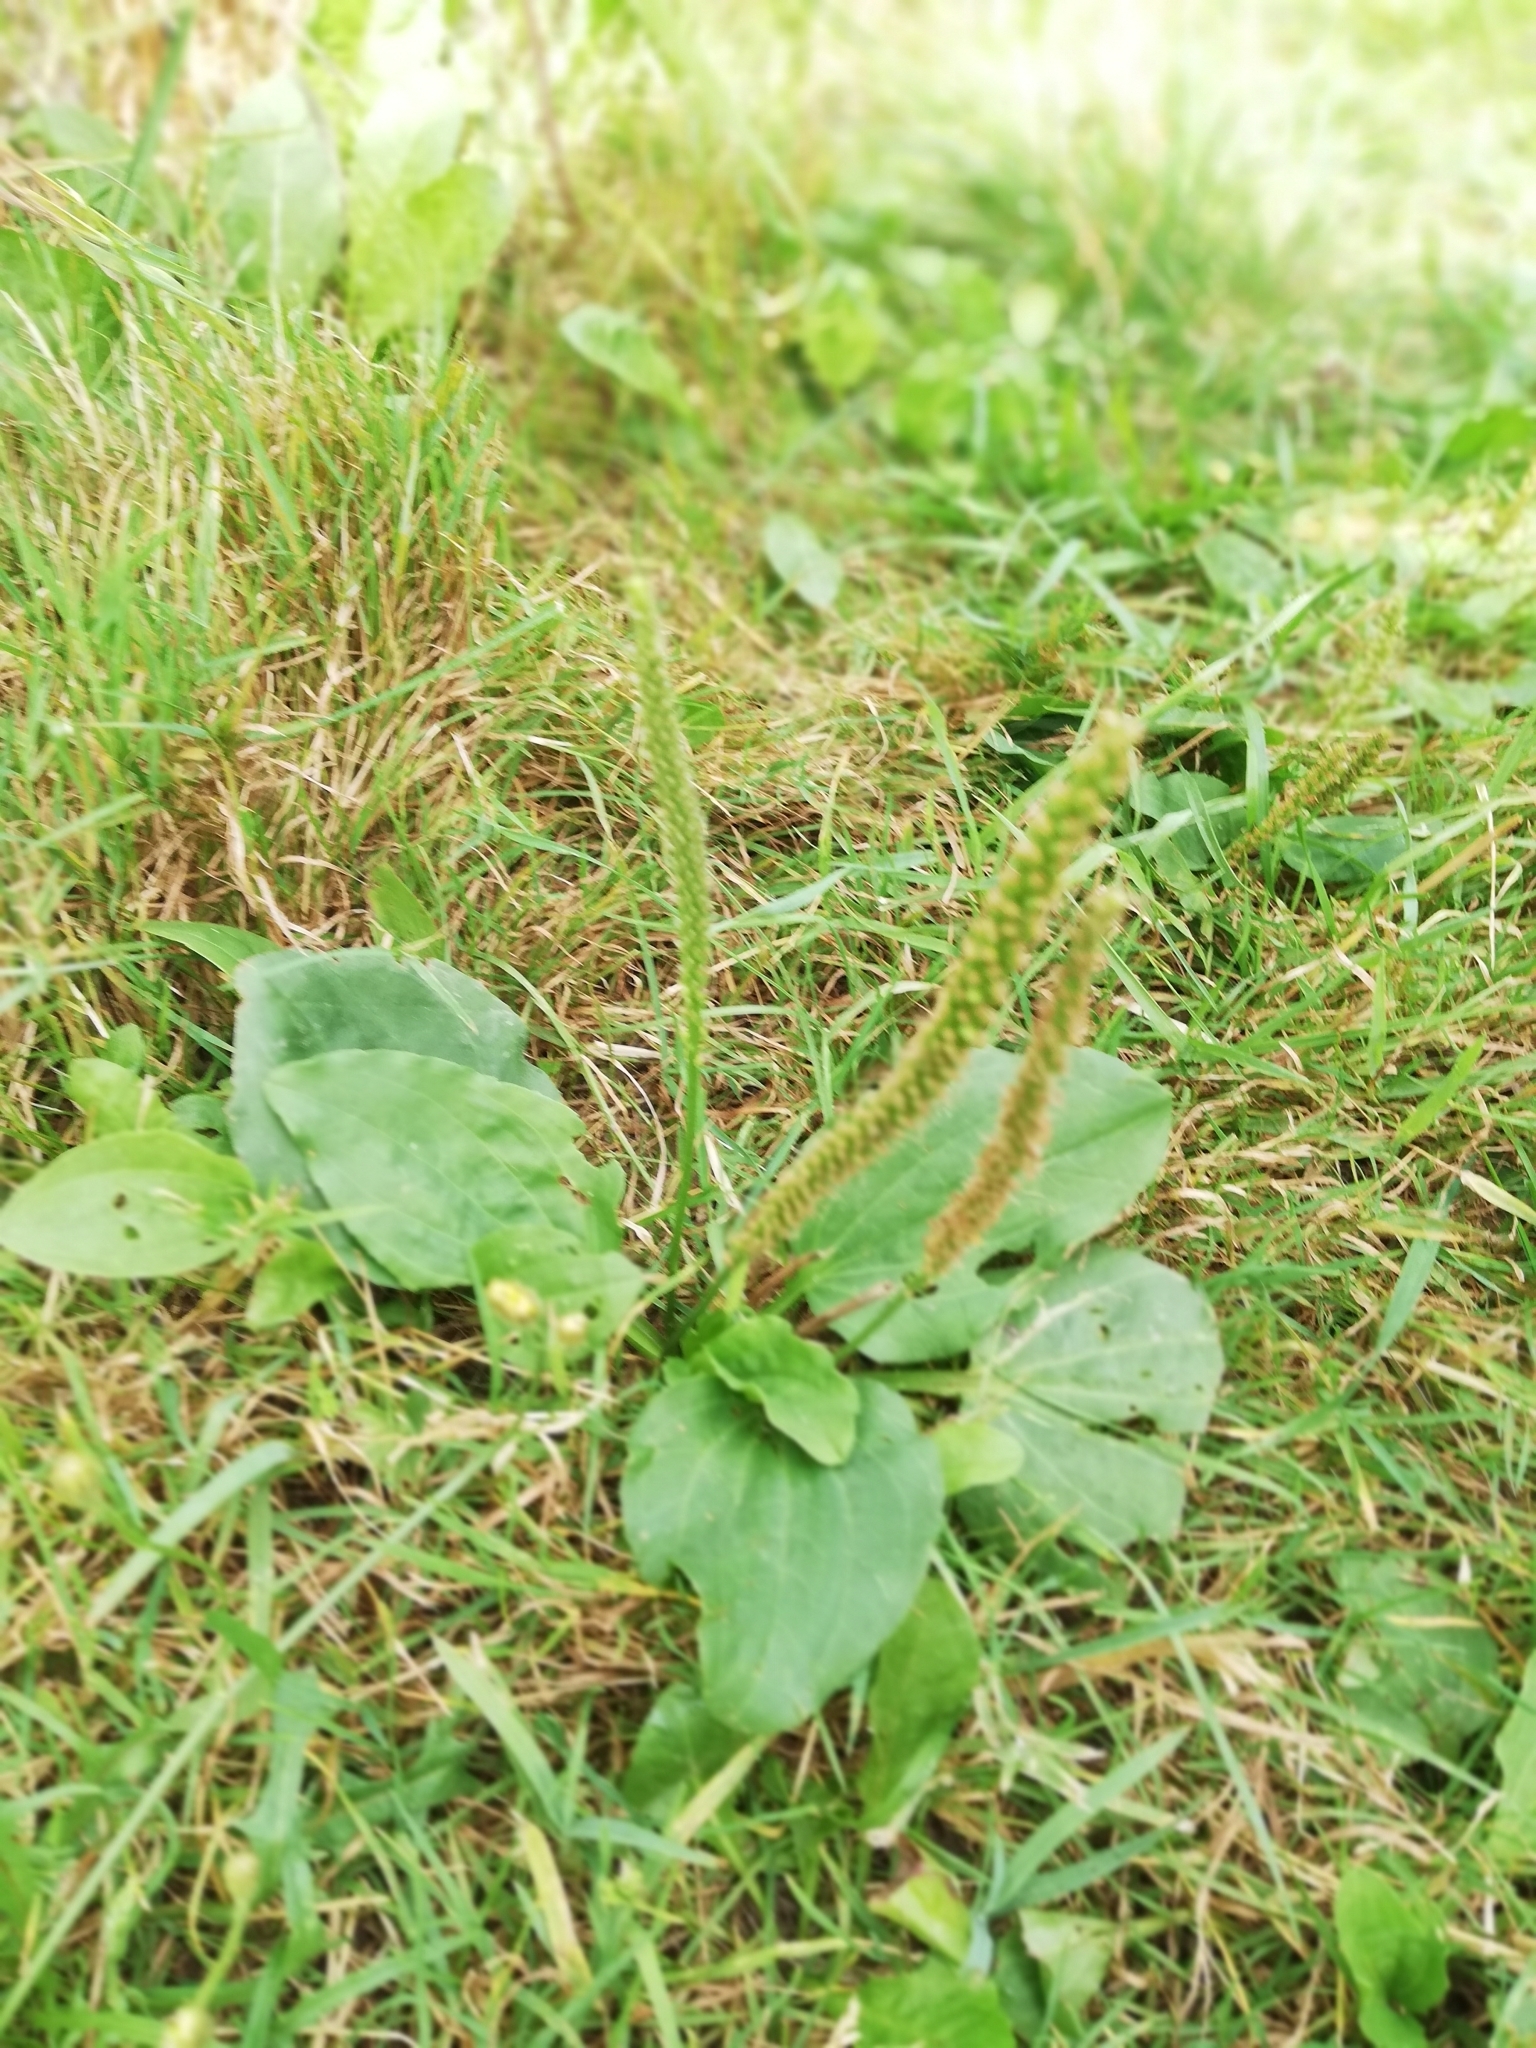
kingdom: Plantae
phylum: Tracheophyta
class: Magnoliopsida
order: Lamiales
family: Plantaginaceae
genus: Plantago
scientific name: Plantago major
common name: Common plantain
